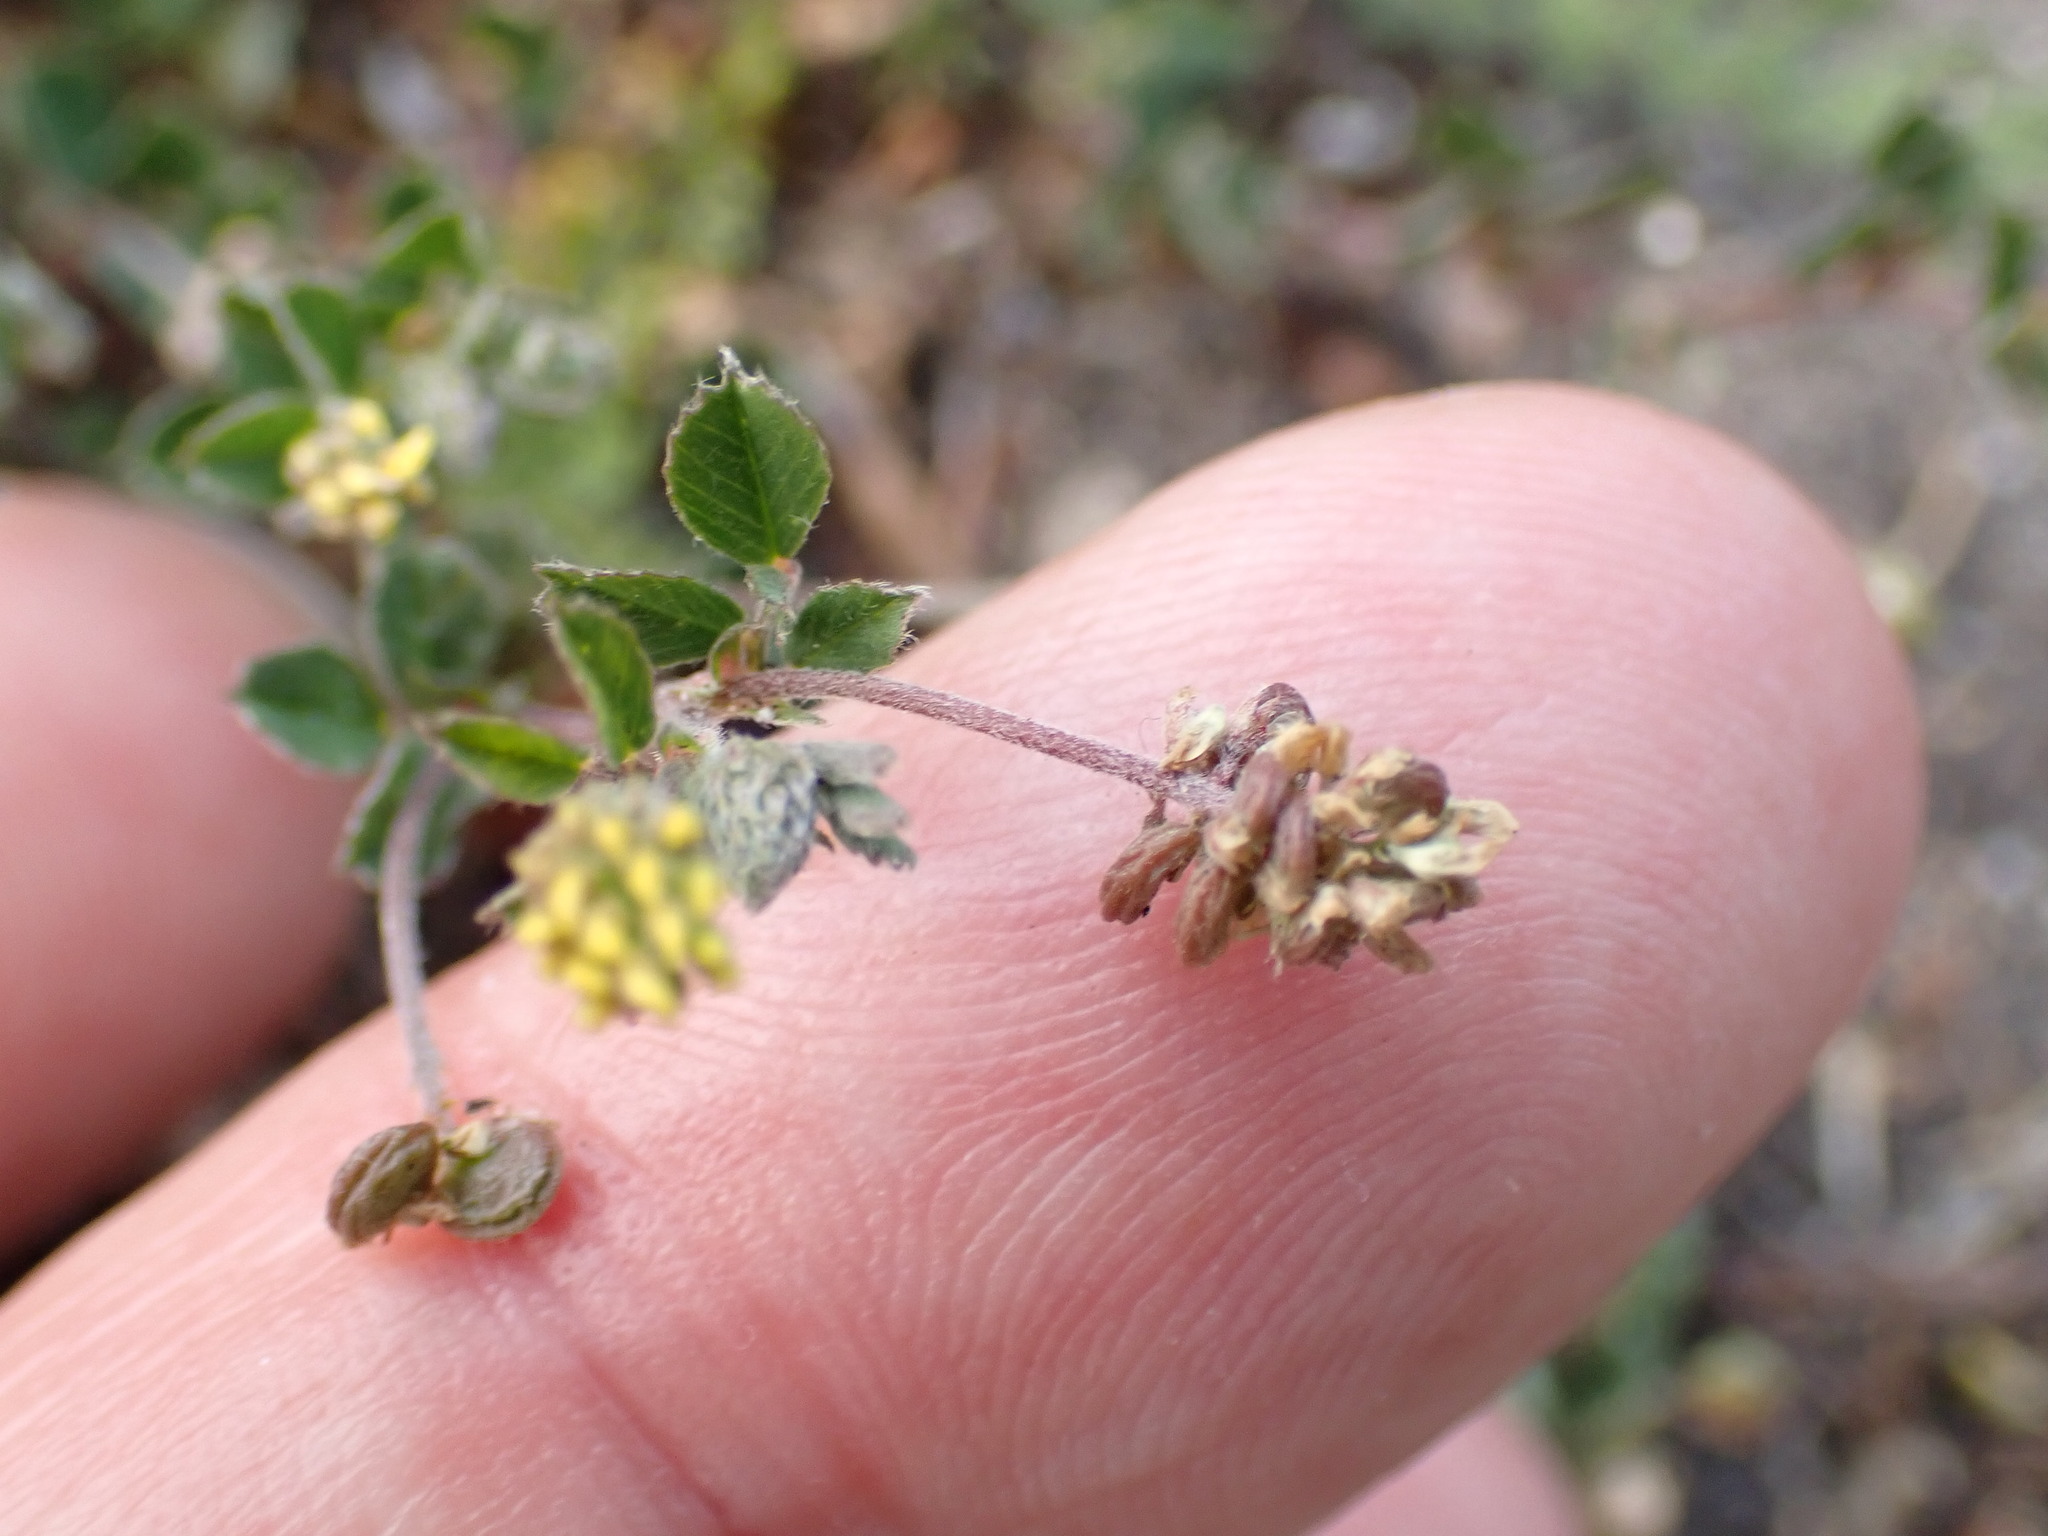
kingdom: Plantae
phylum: Tracheophyta
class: Magnoliopsida
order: Fabales
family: Fabaceae
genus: Medicago
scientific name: Medicago lupulina
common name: Black medick
